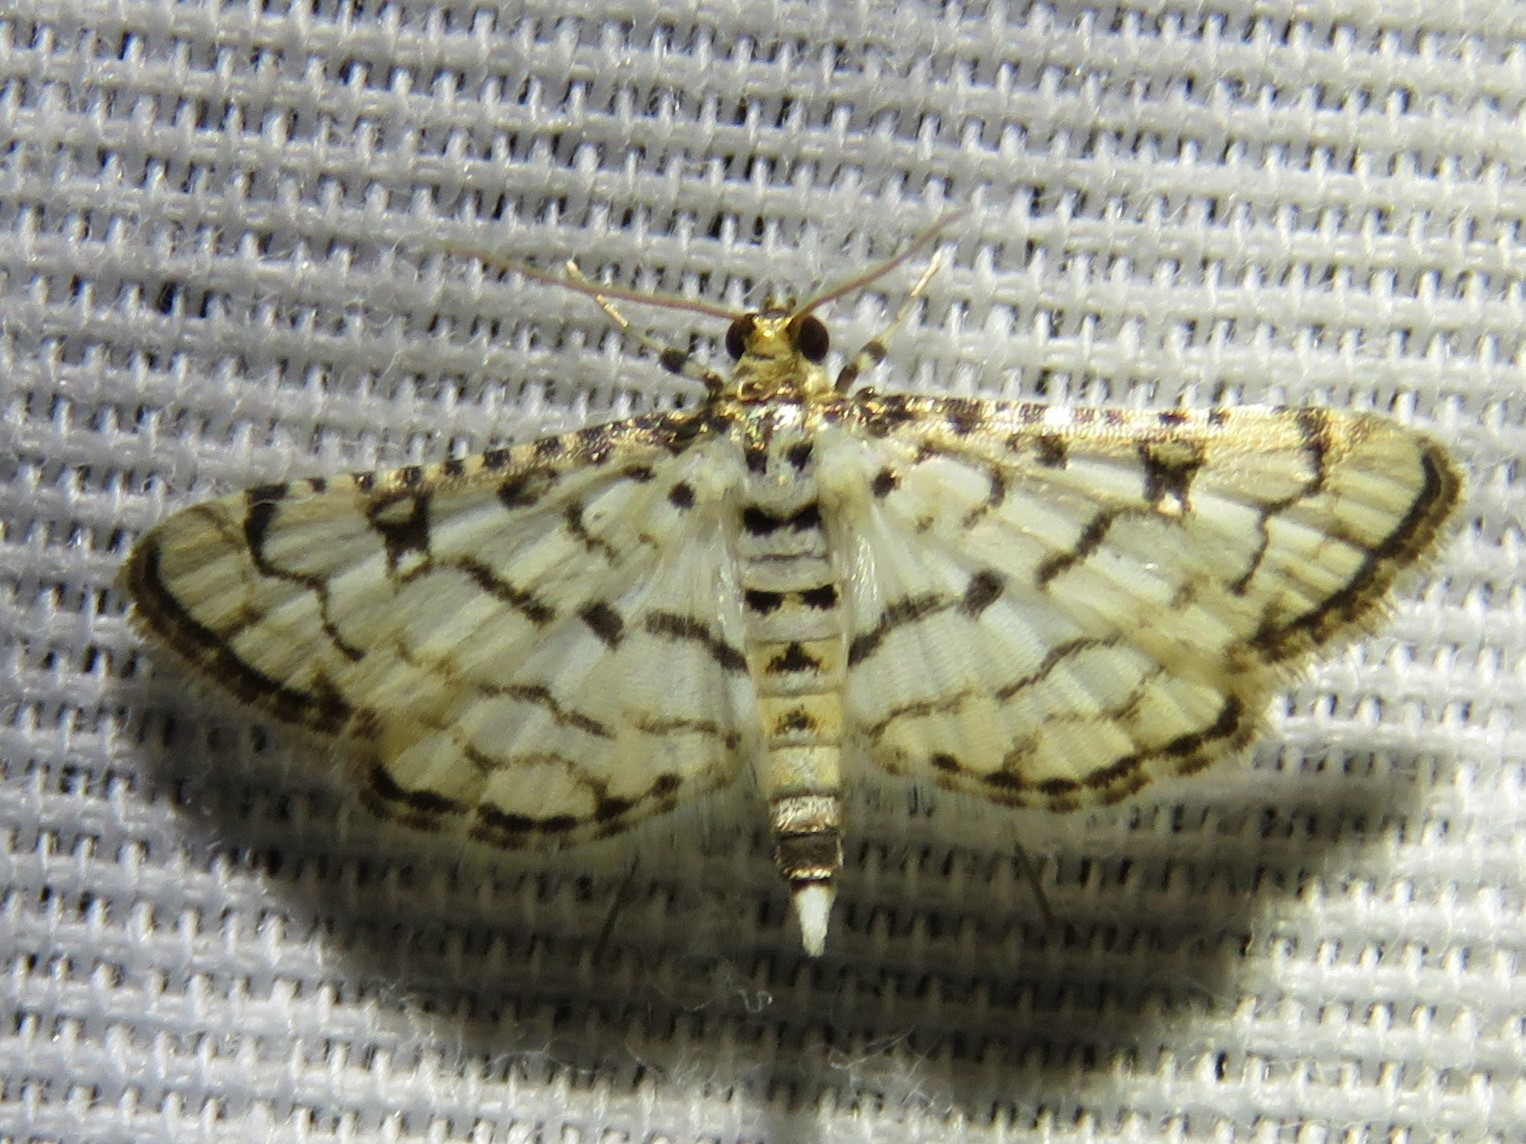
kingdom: Animalia
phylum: Arthropoda
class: Insecta
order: Lepidoptera
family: Crambidae
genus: Hileithia
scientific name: Hileithia rehamalis
